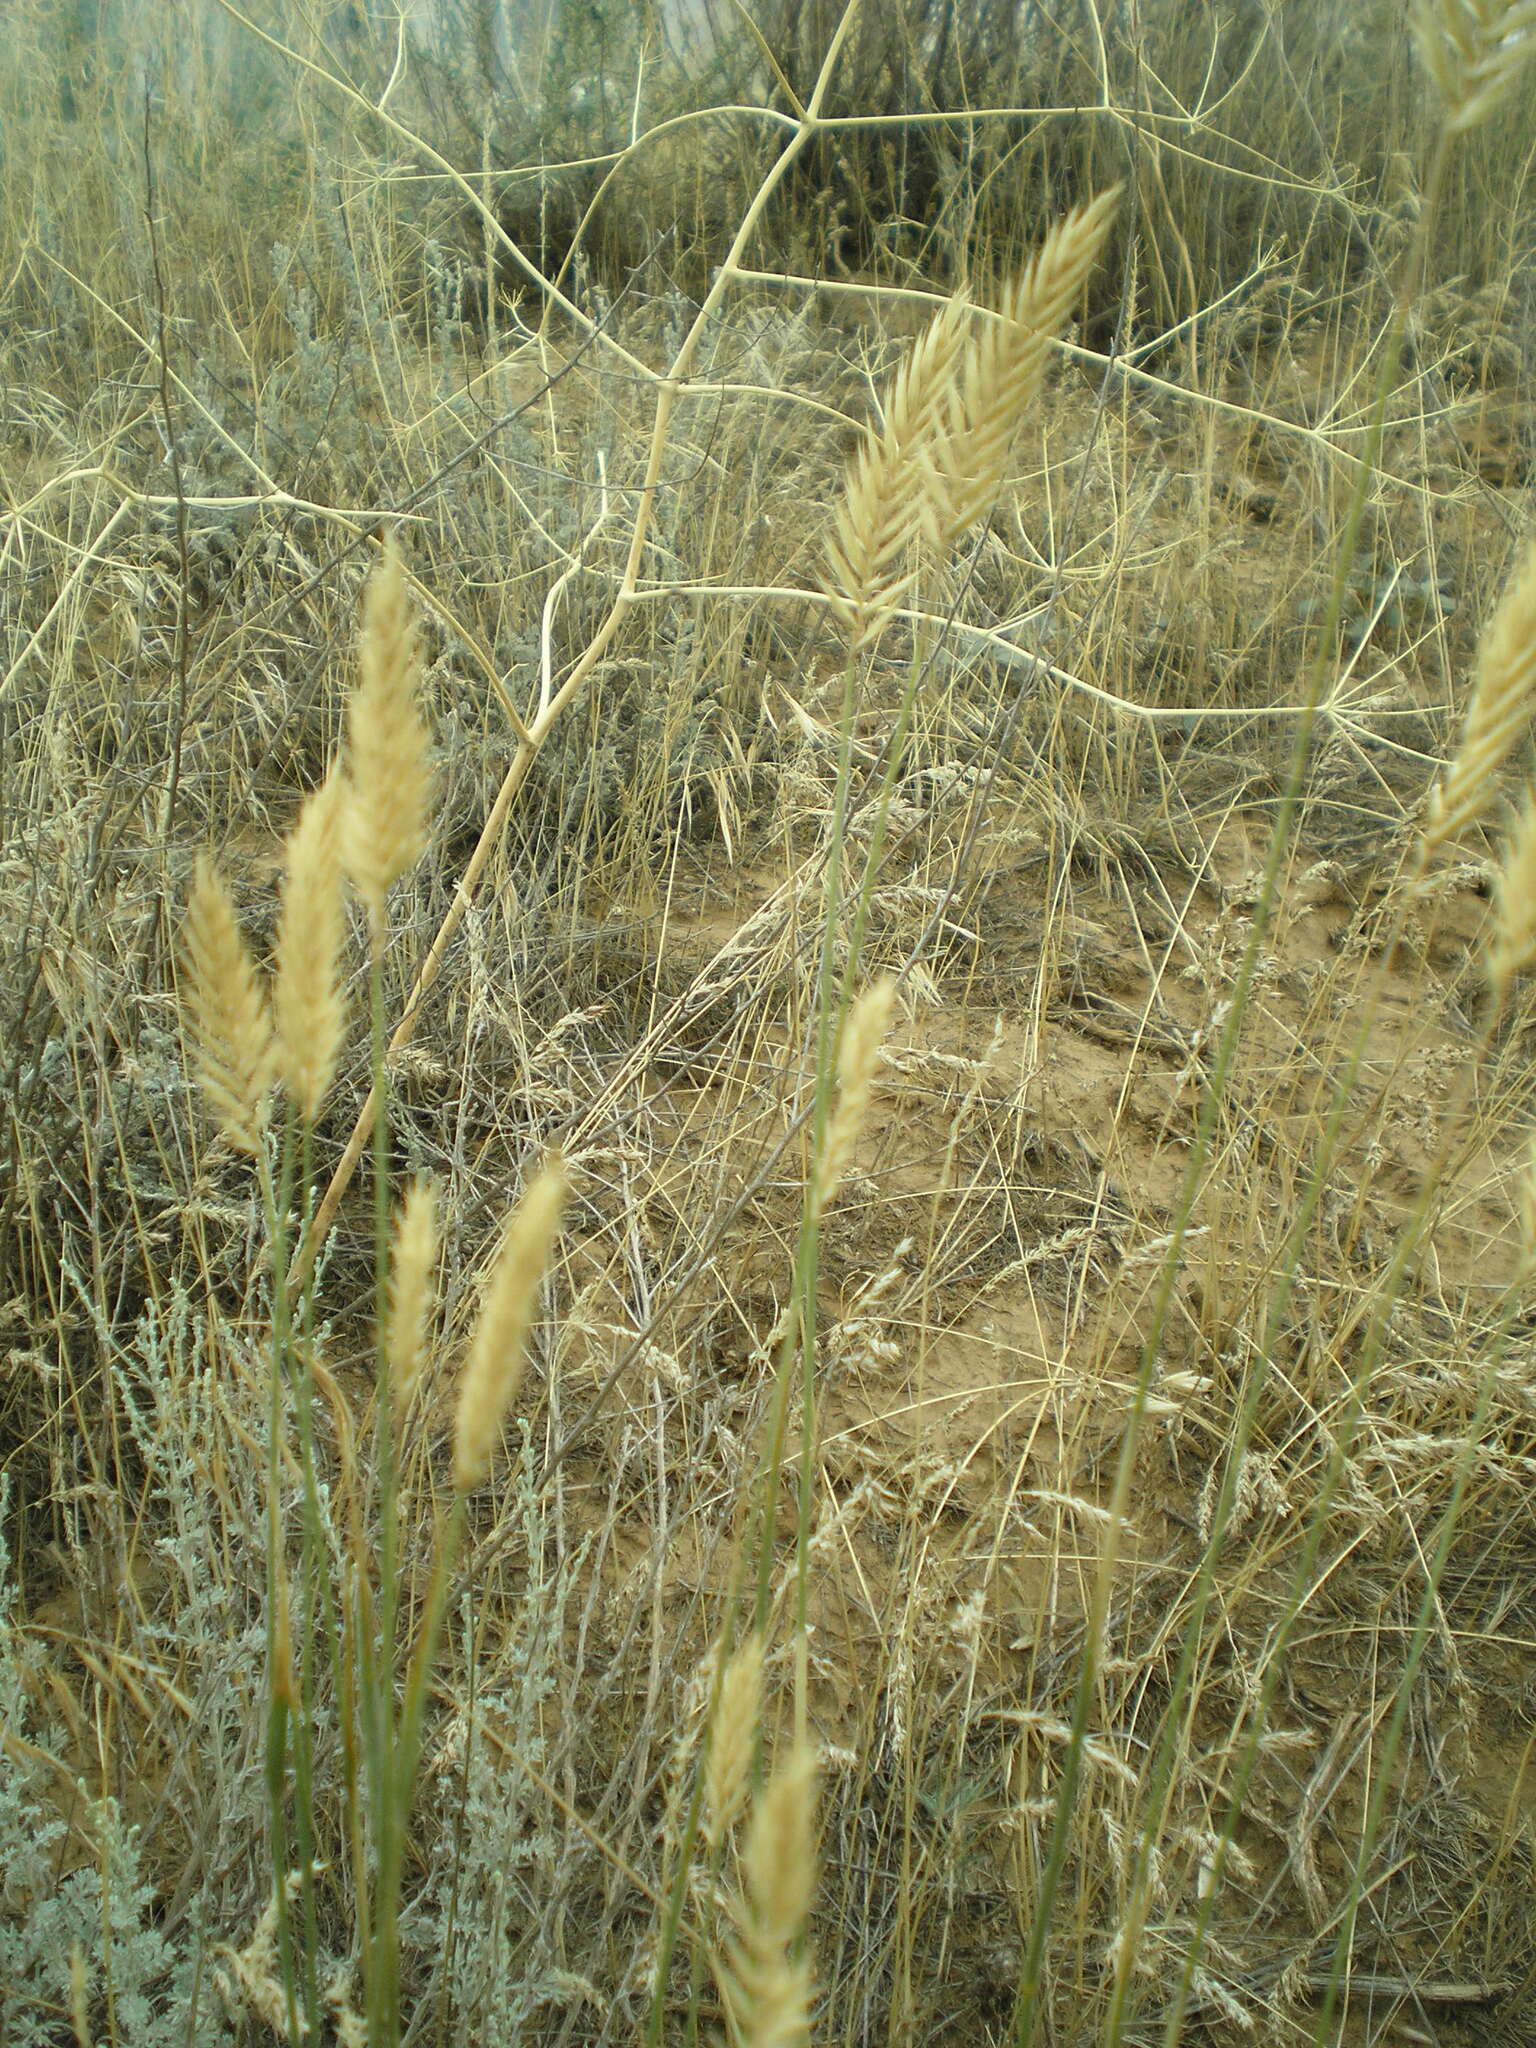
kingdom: Plantae
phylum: Tracheophyta
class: Liliopsida
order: Poales
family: Poaceae
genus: Agropyron
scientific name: Agropyron cristatum
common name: Crested wheatgrass
